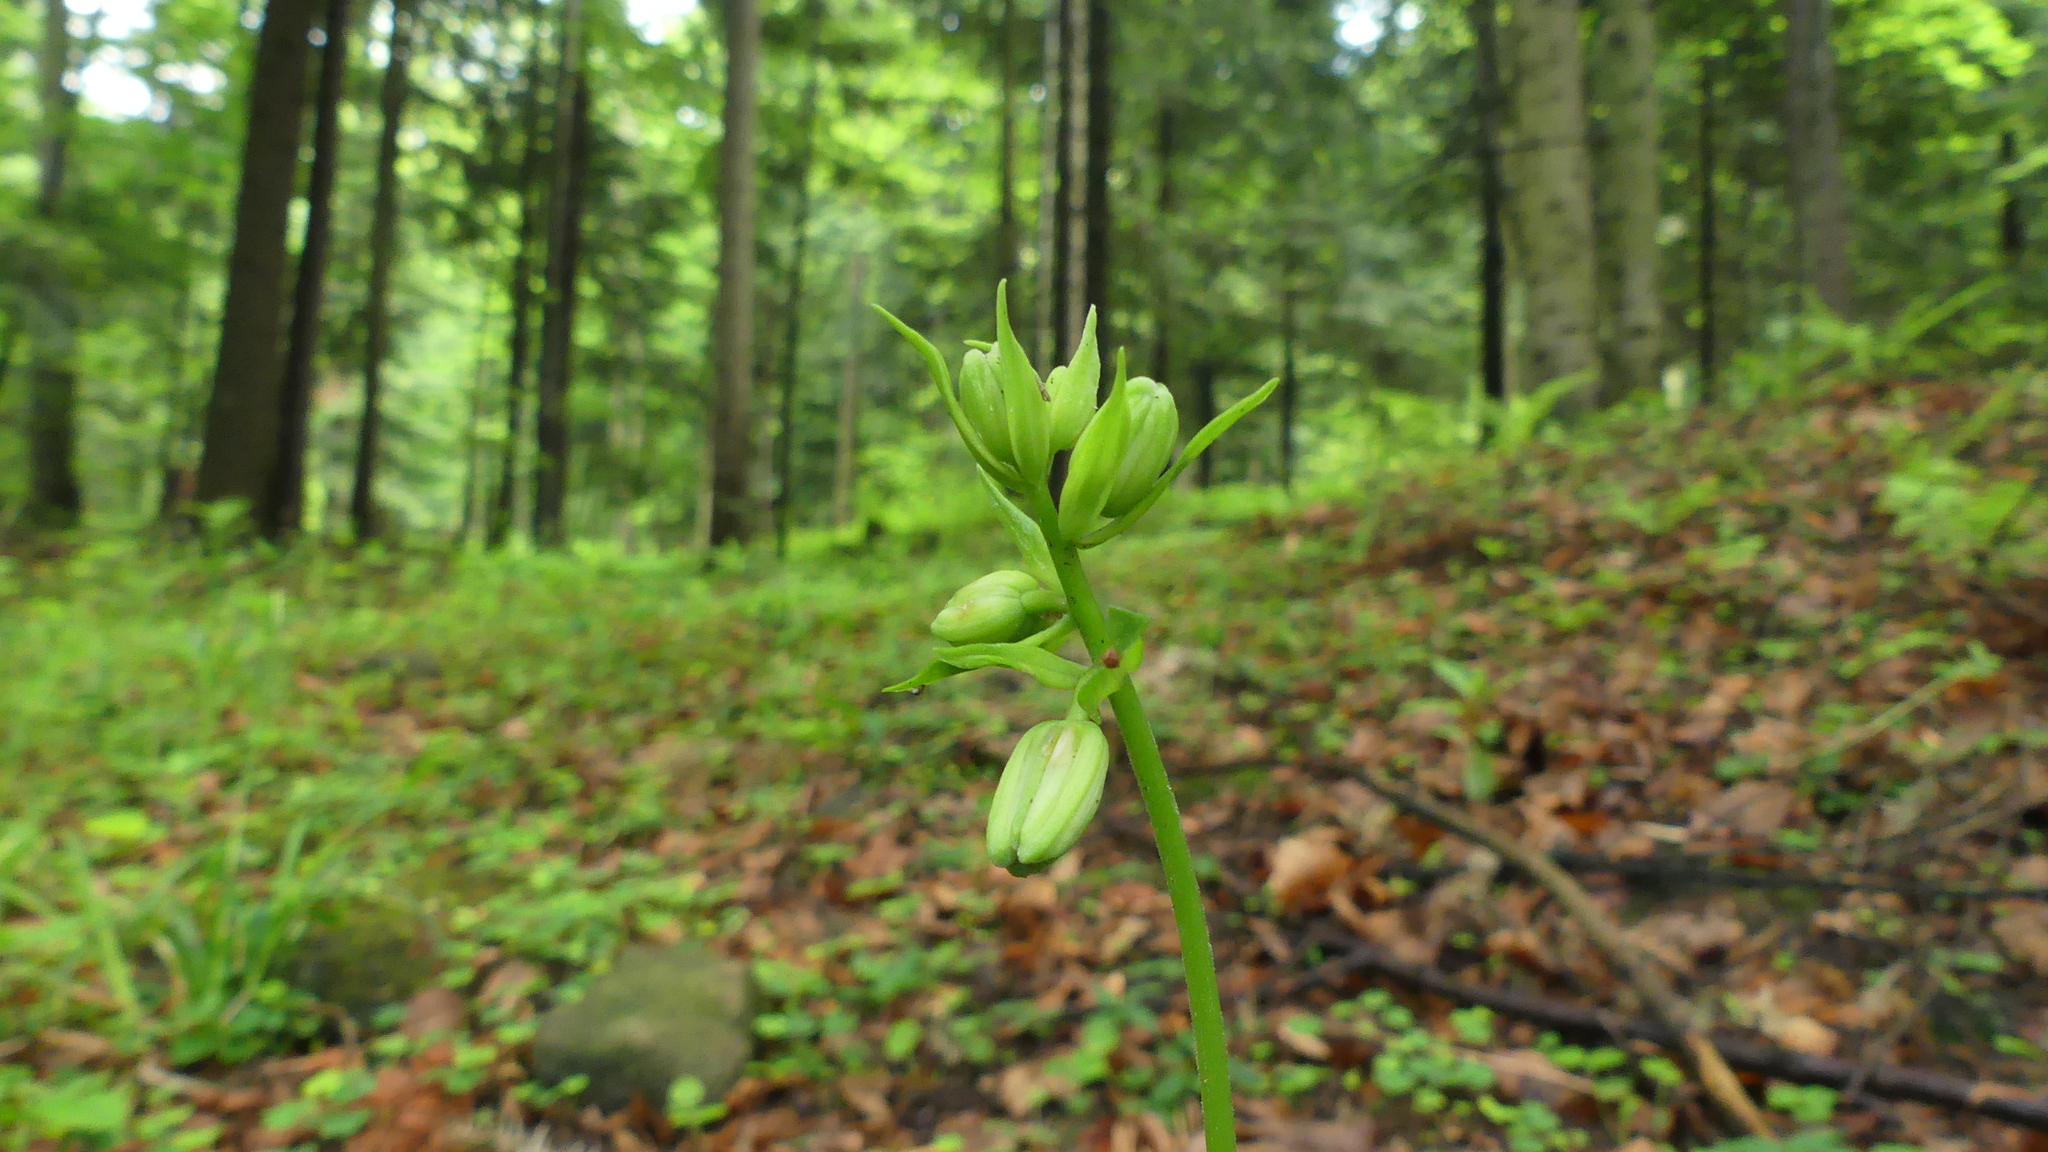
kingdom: Plantae
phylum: Tracheophyta
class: Liliopsida
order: Liliales
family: Liliaceae
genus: Lilium
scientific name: Lilium martagon
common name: Martagon lily
